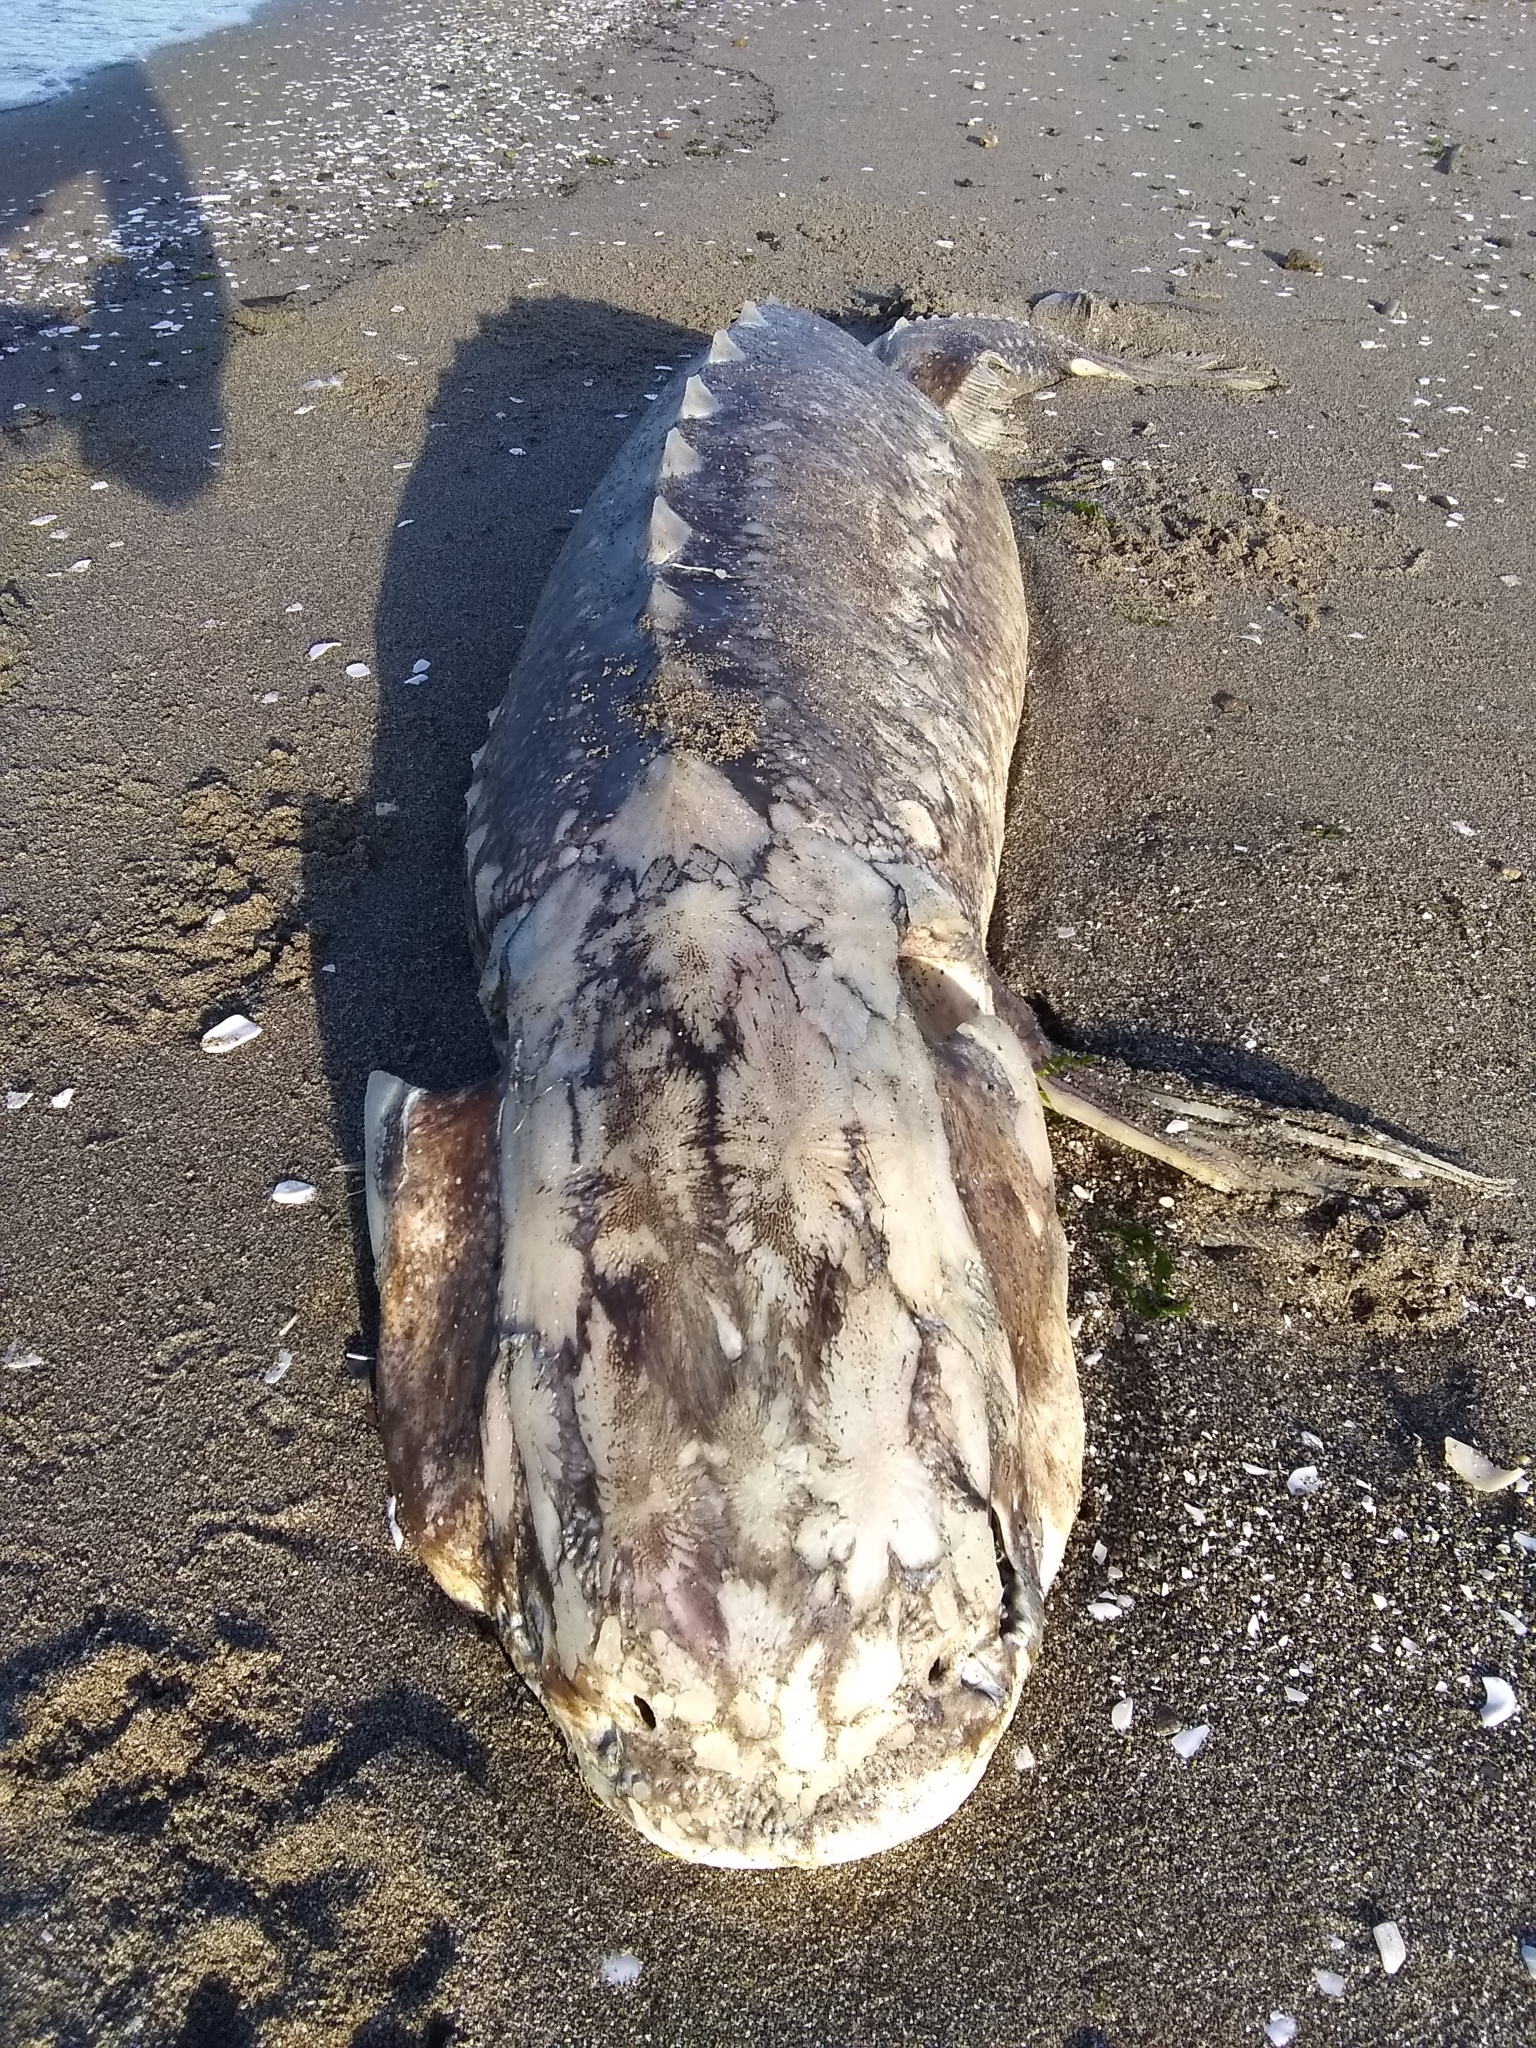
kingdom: Animalia
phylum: Chordata
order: Acipenseriformes
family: Acipenseridae
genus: Acipenser
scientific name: Acipenser transmontanus
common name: White sturgeon
